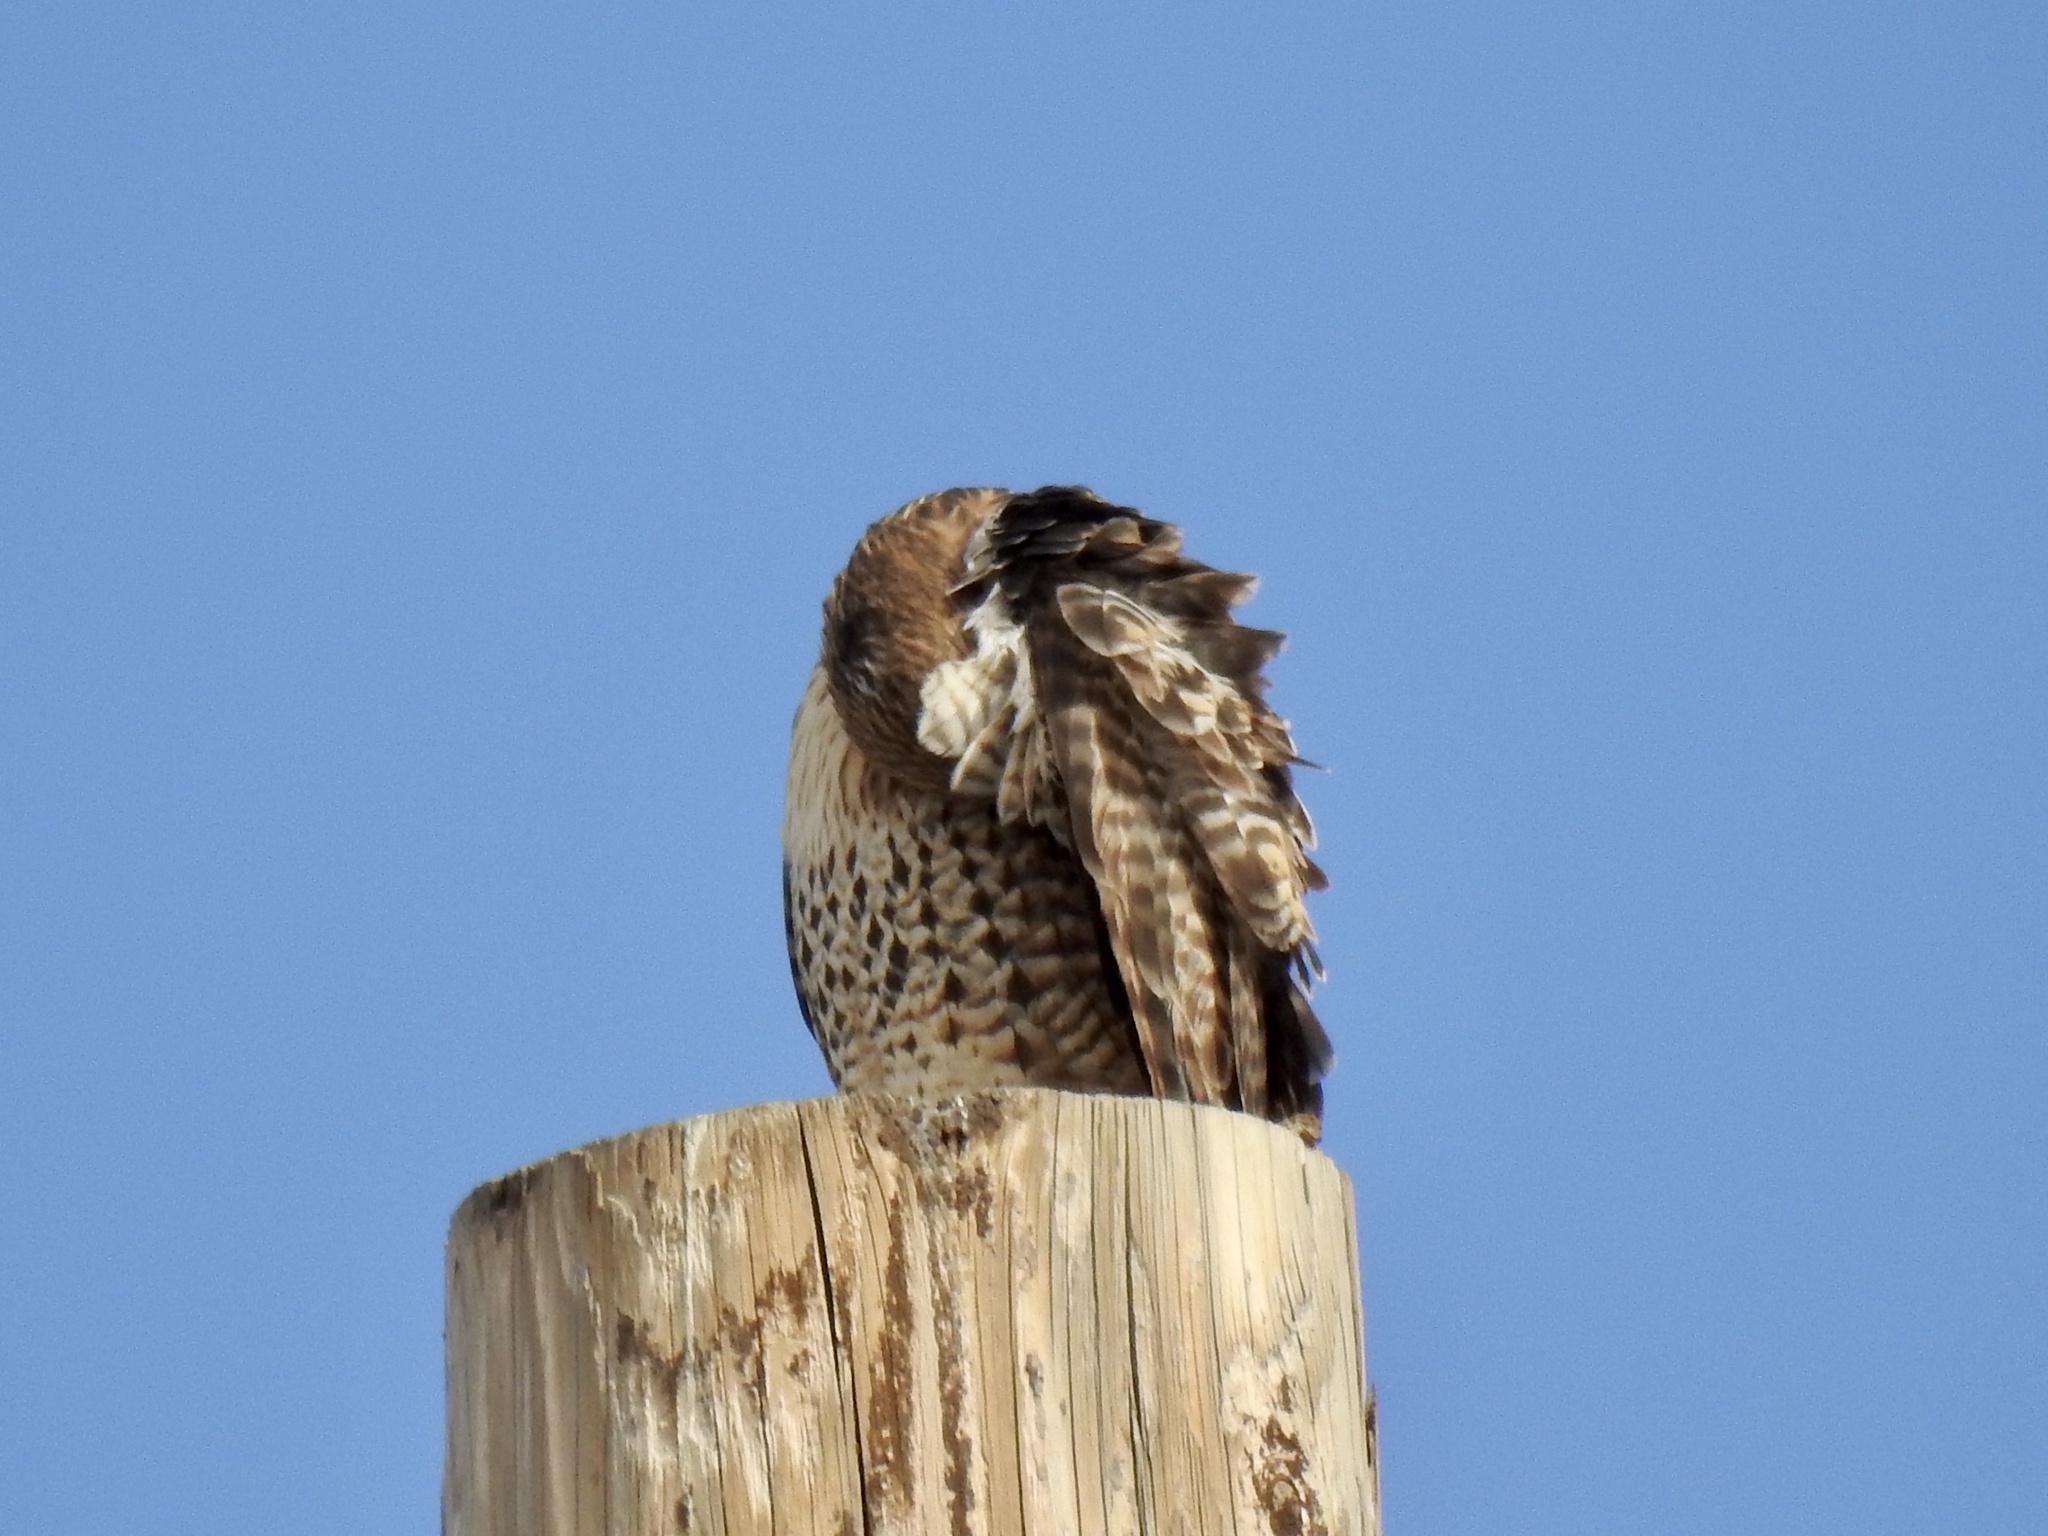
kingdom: Animalia
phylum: Chordata
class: Aves
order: Accipitriformes
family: Accipitridae
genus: Buteo
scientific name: Buteo jamaicensis
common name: Red-tailed hawk
